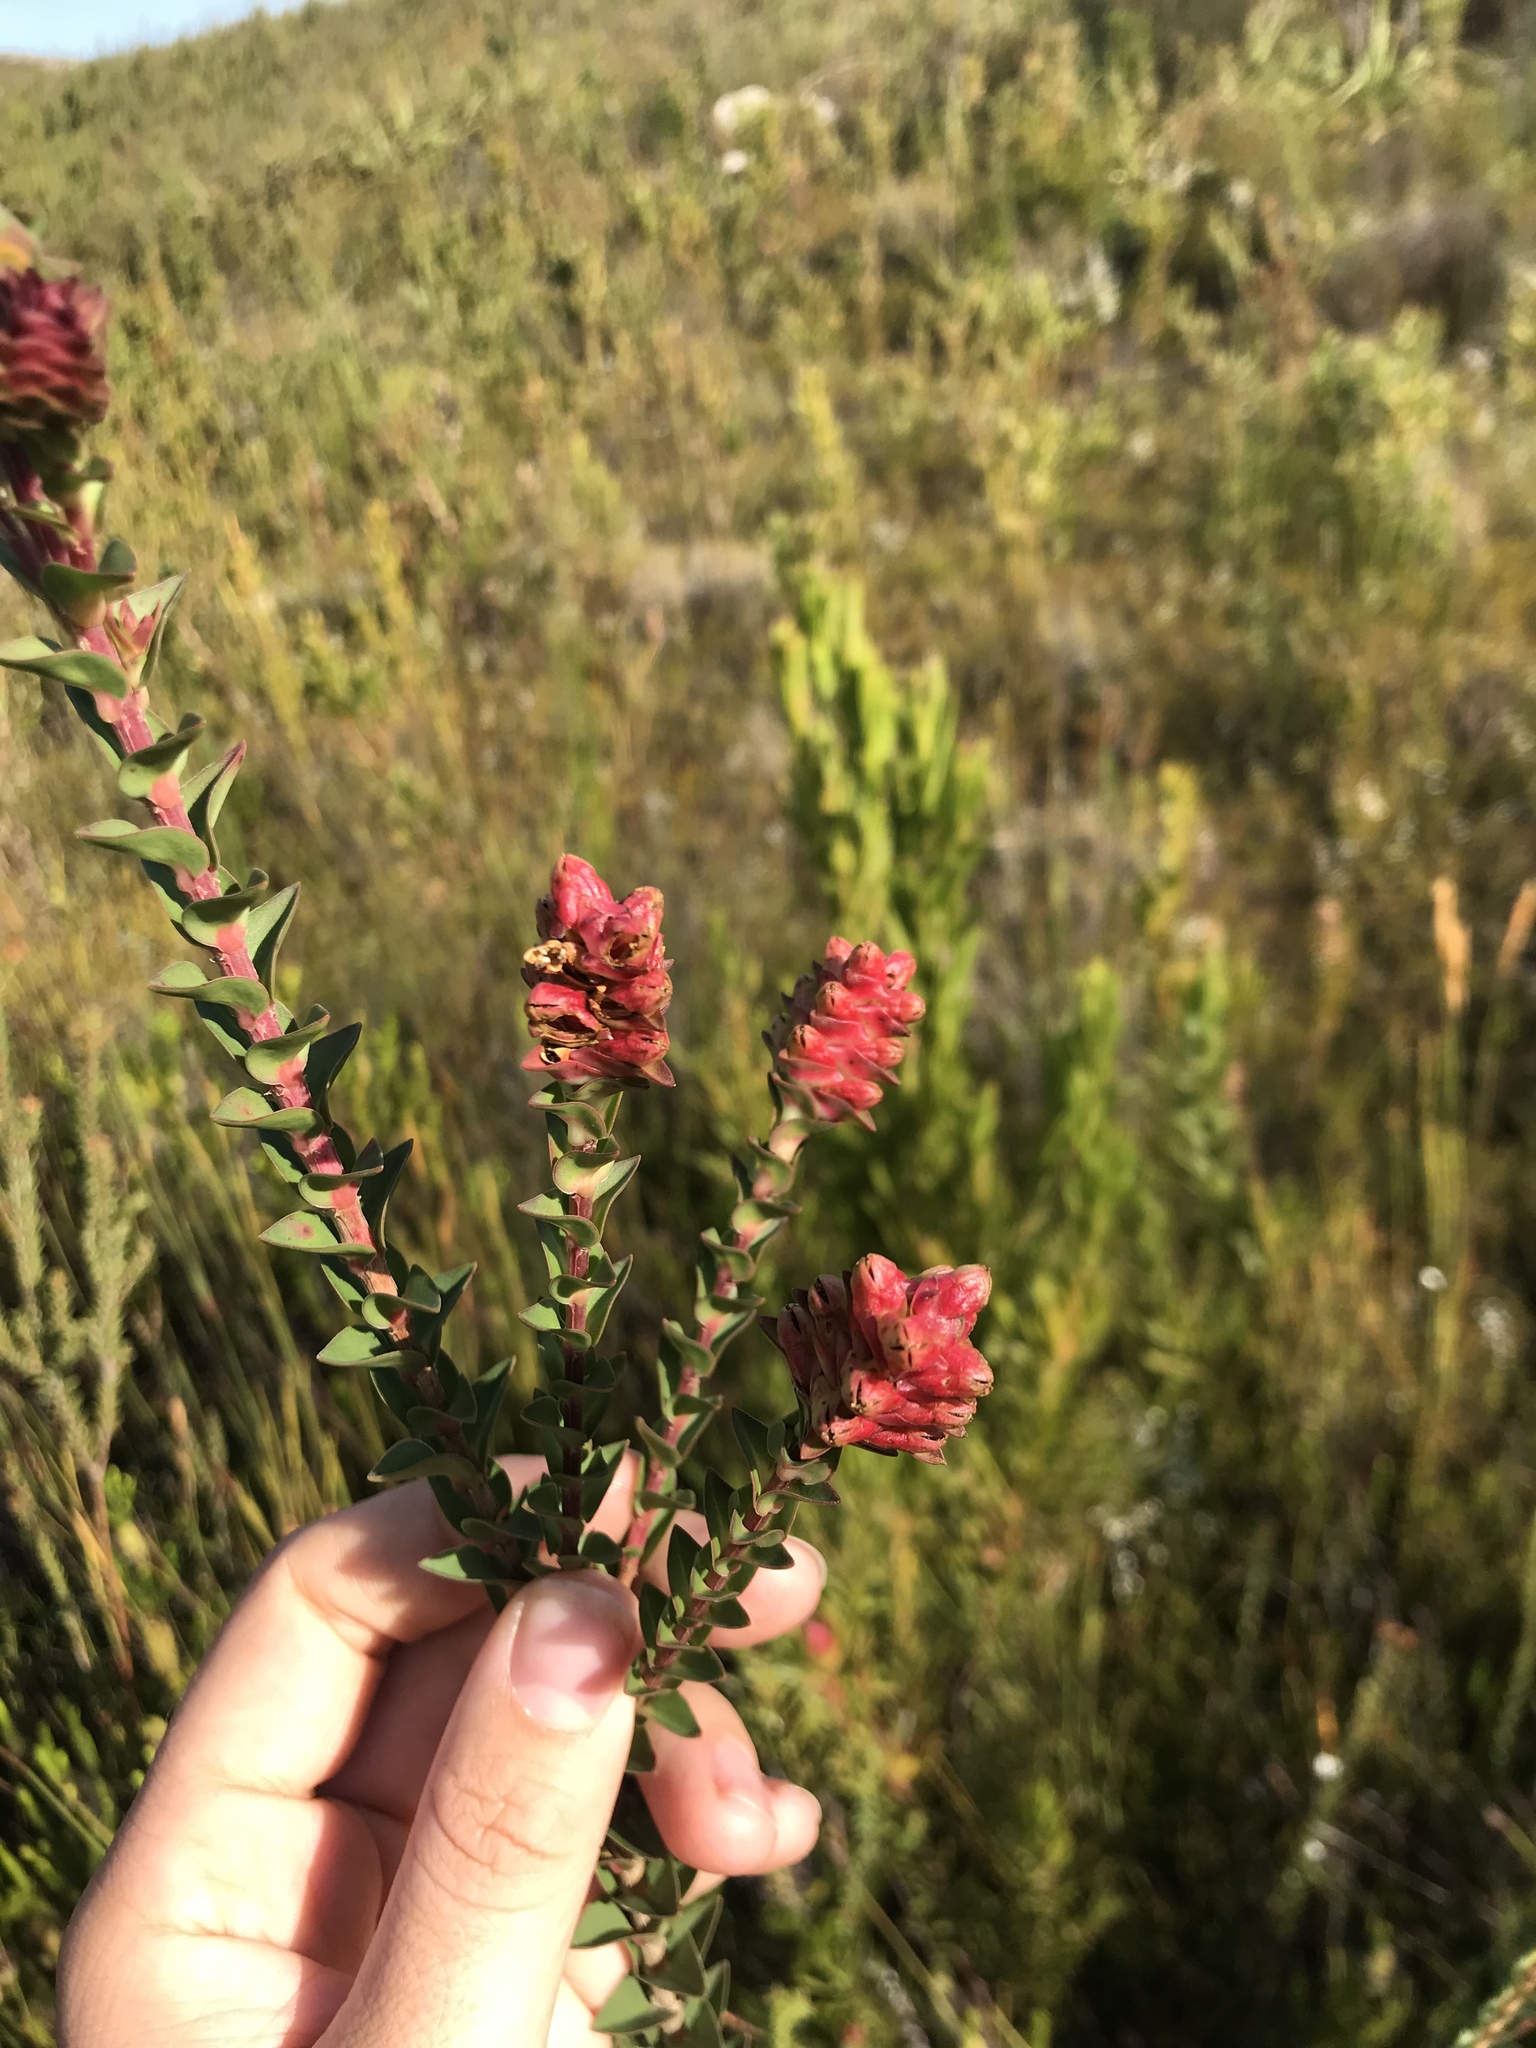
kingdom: Plantae
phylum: Tracheophyta
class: Magnoliopsida
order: Myrtales
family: Penaeaceae
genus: Penaea
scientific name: Penaea cneorum
